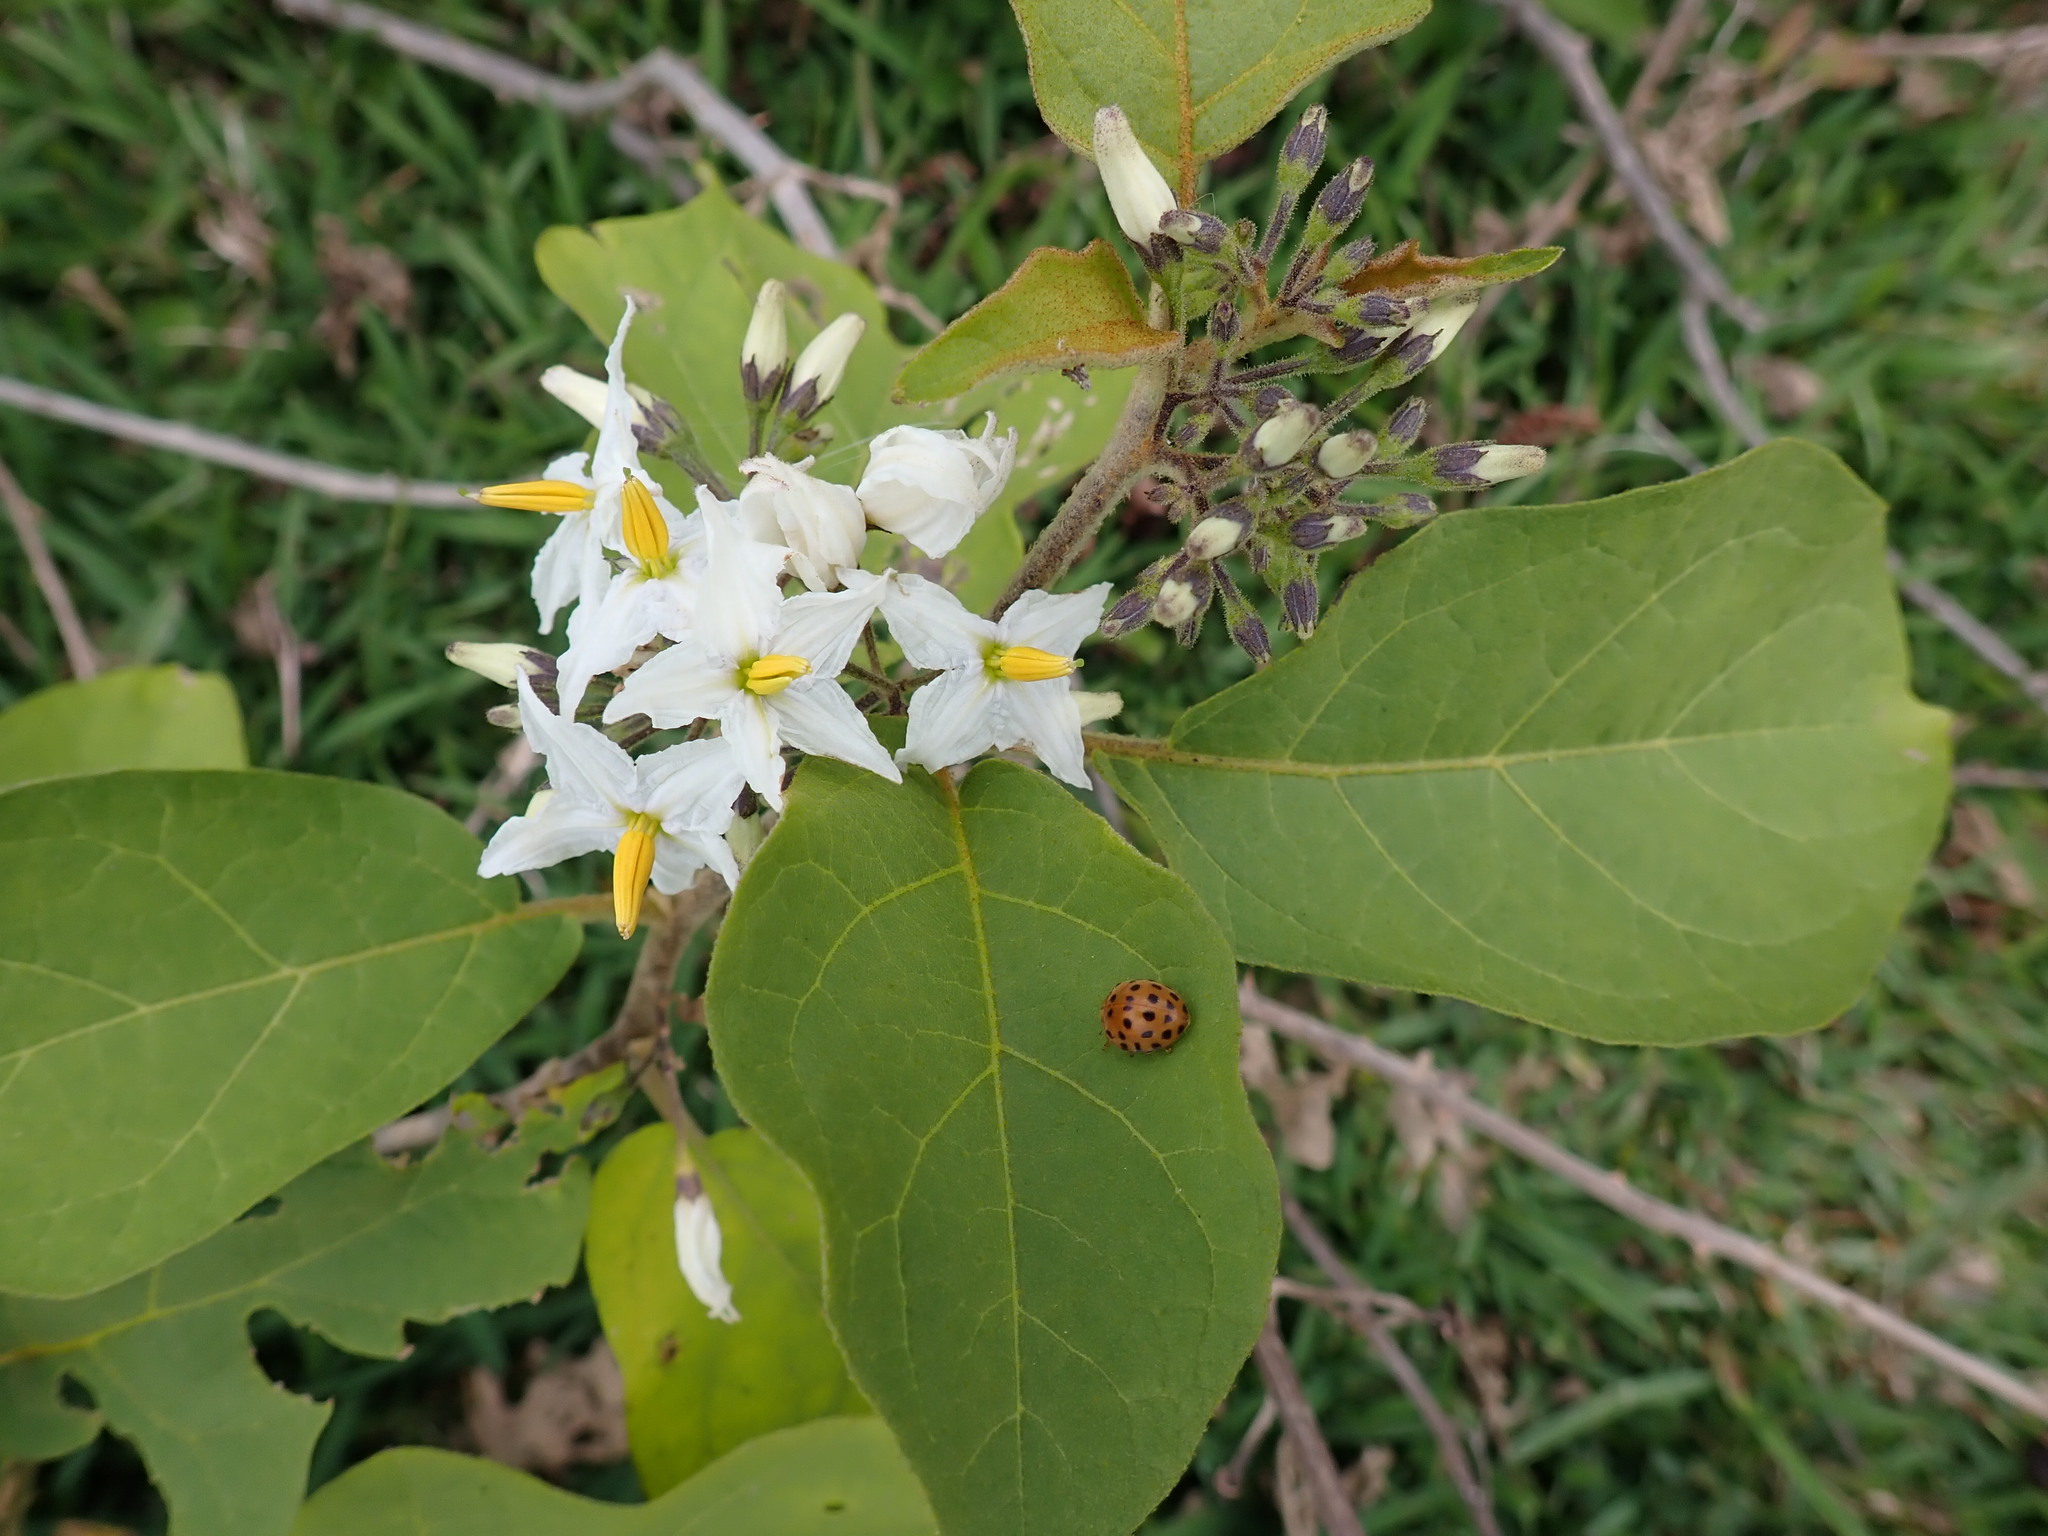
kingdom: Plantae
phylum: Tracheophyta
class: Magnoliopsida
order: Solanales
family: Solanaceae
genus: Solanum
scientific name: Solanum torvum
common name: Turkey berry
